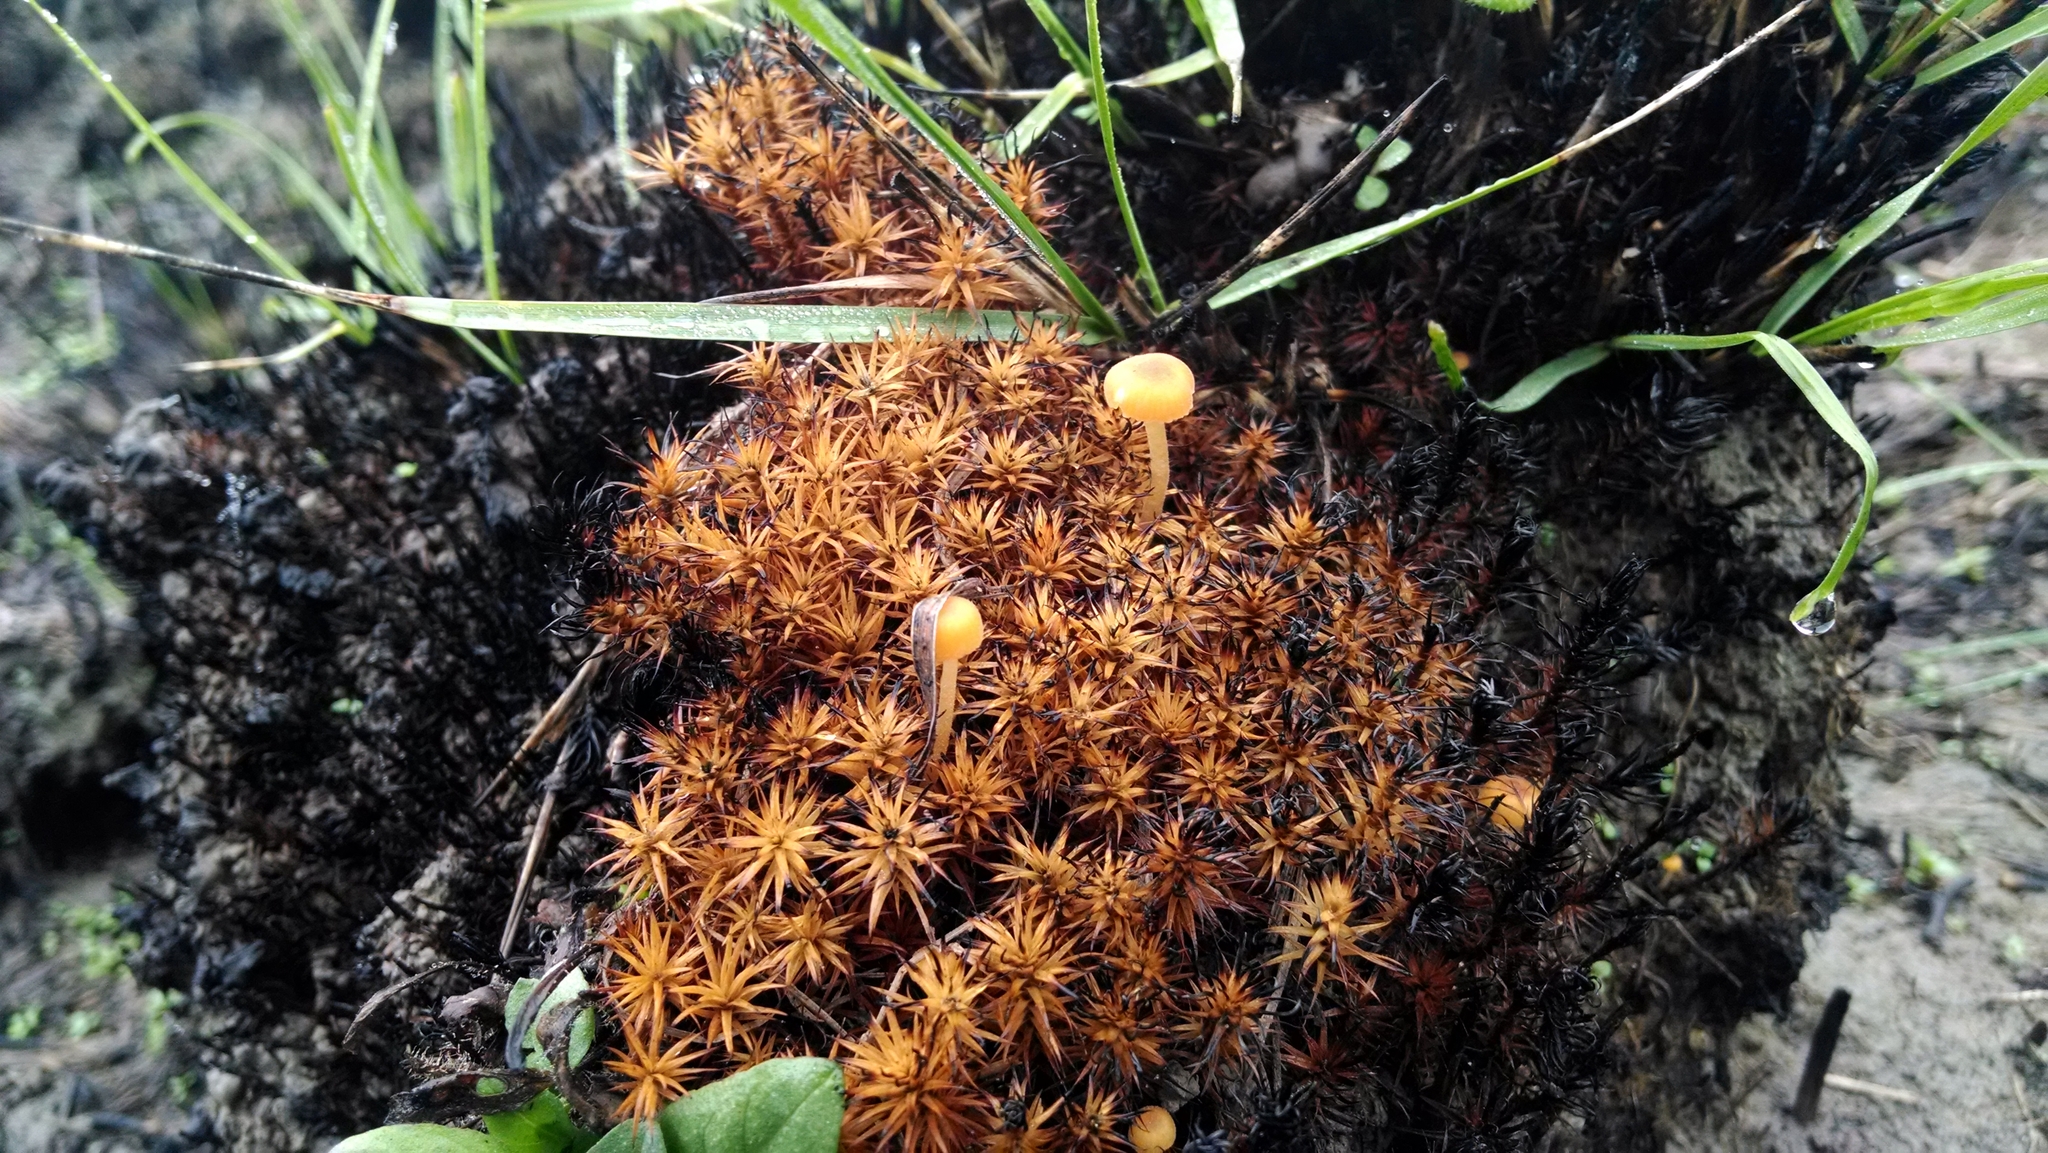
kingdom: Fungi
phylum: Basidiomycota
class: Agaricomycetes
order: Hymenochaetales
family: Rickenellaceae
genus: Rickenella
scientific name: Rickenella fibula
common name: Orange mosscap
